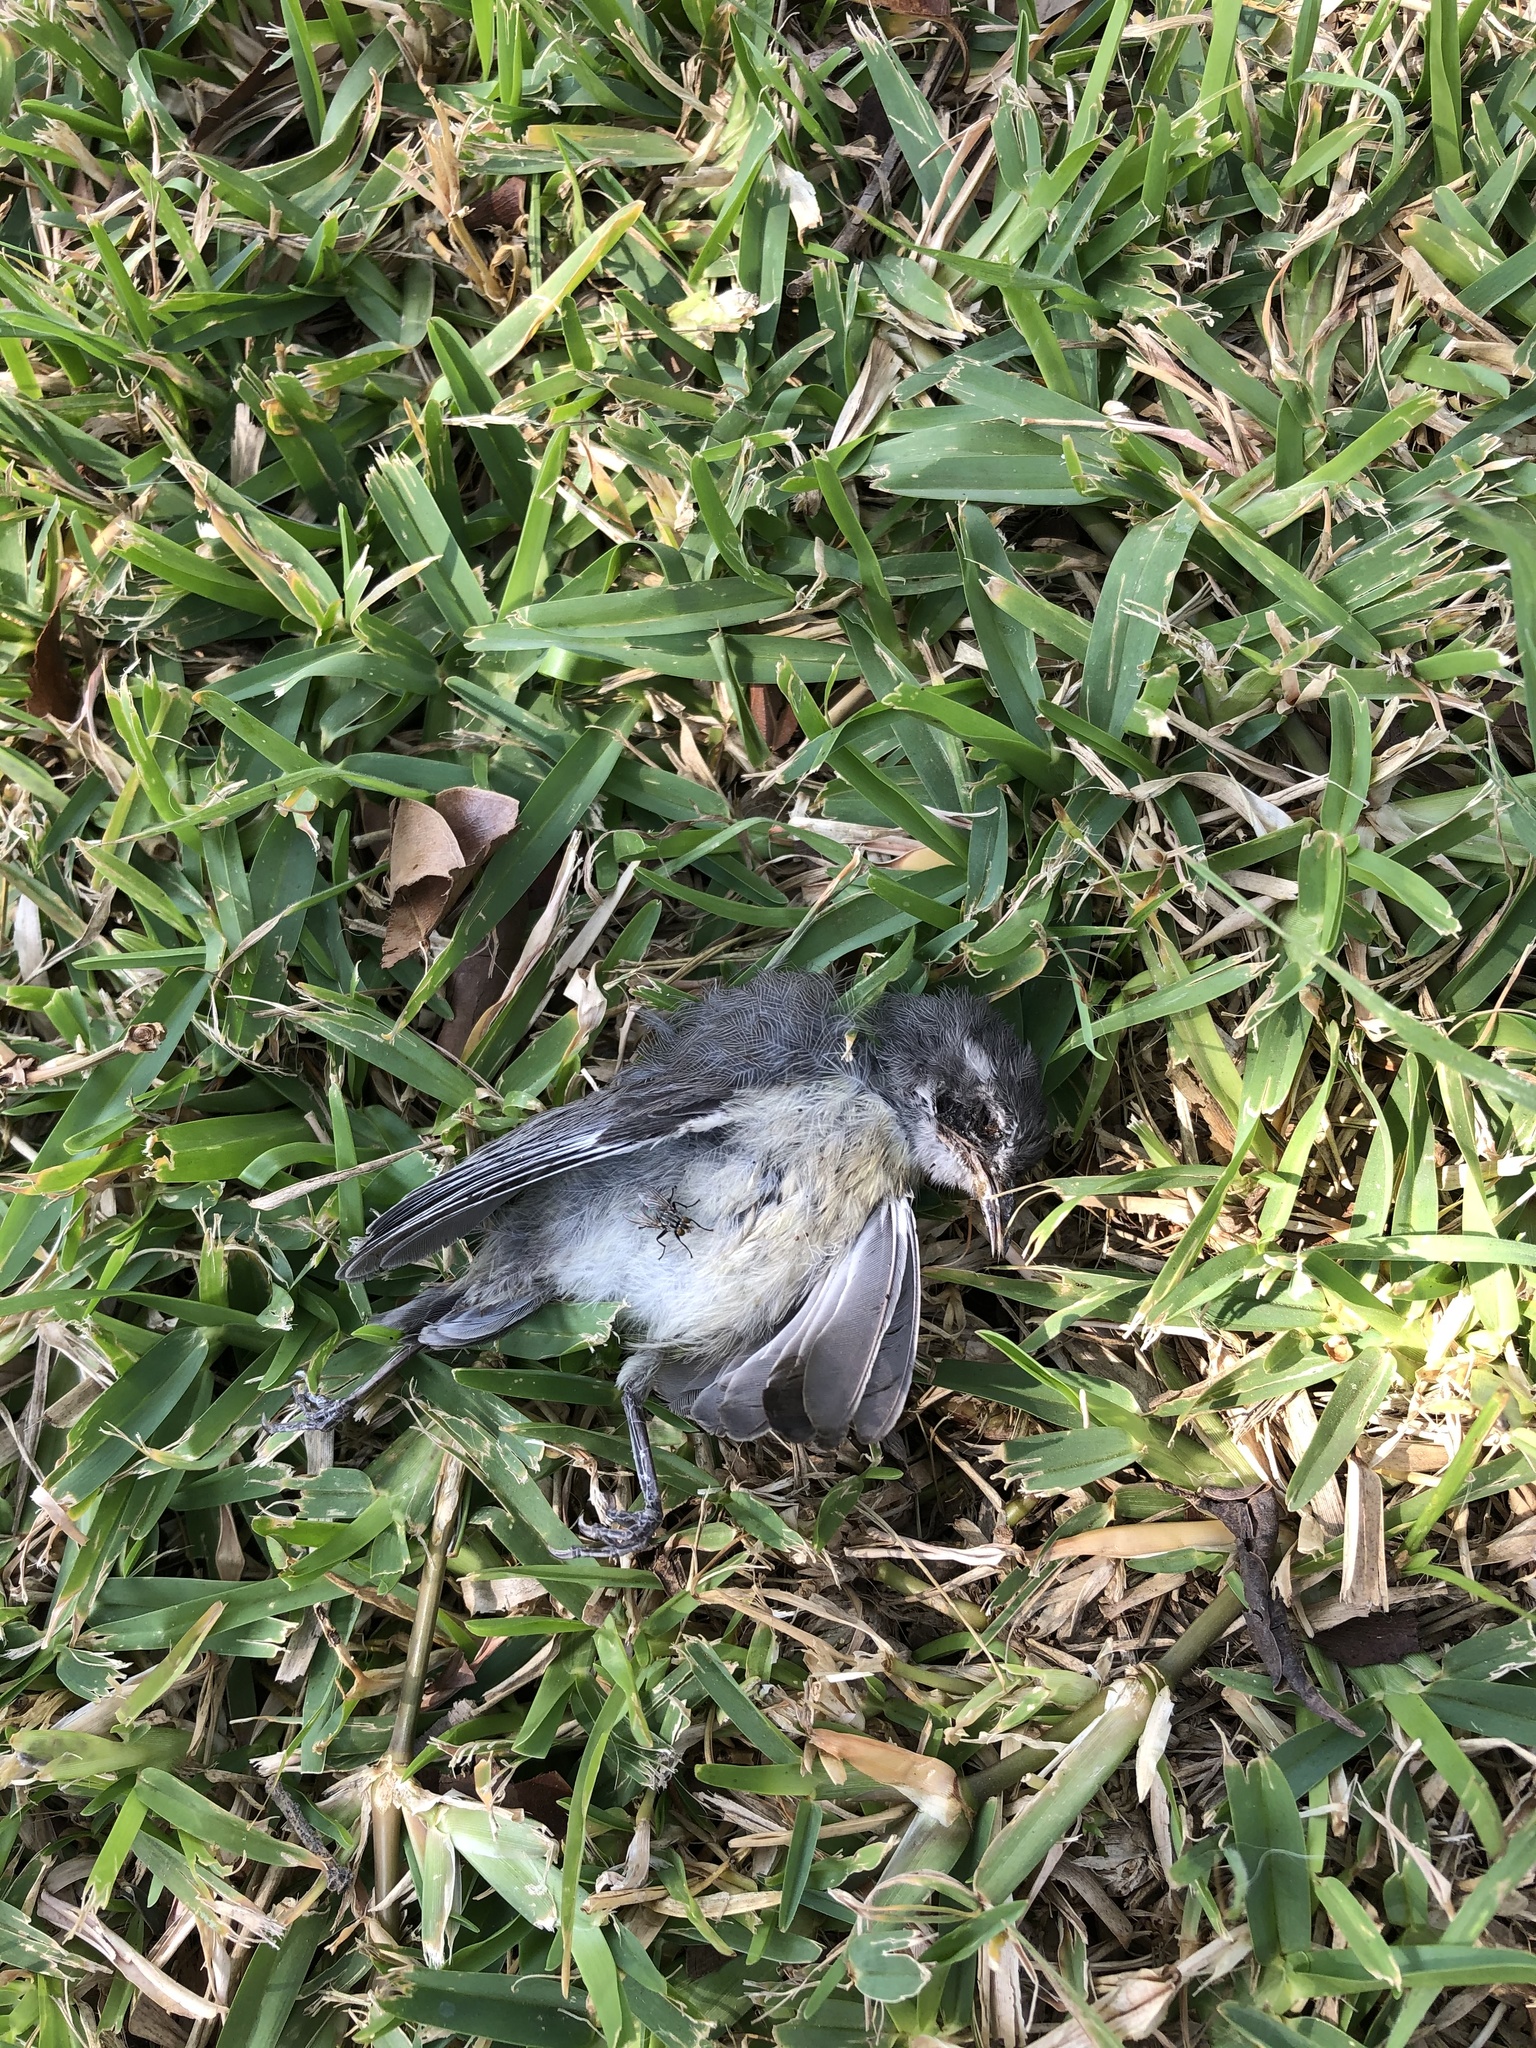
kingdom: Animalia
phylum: Chordata
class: Aves
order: Passeriformes
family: Thraupidae
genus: Coereba
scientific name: Coereba flaveola
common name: Bananaquit
